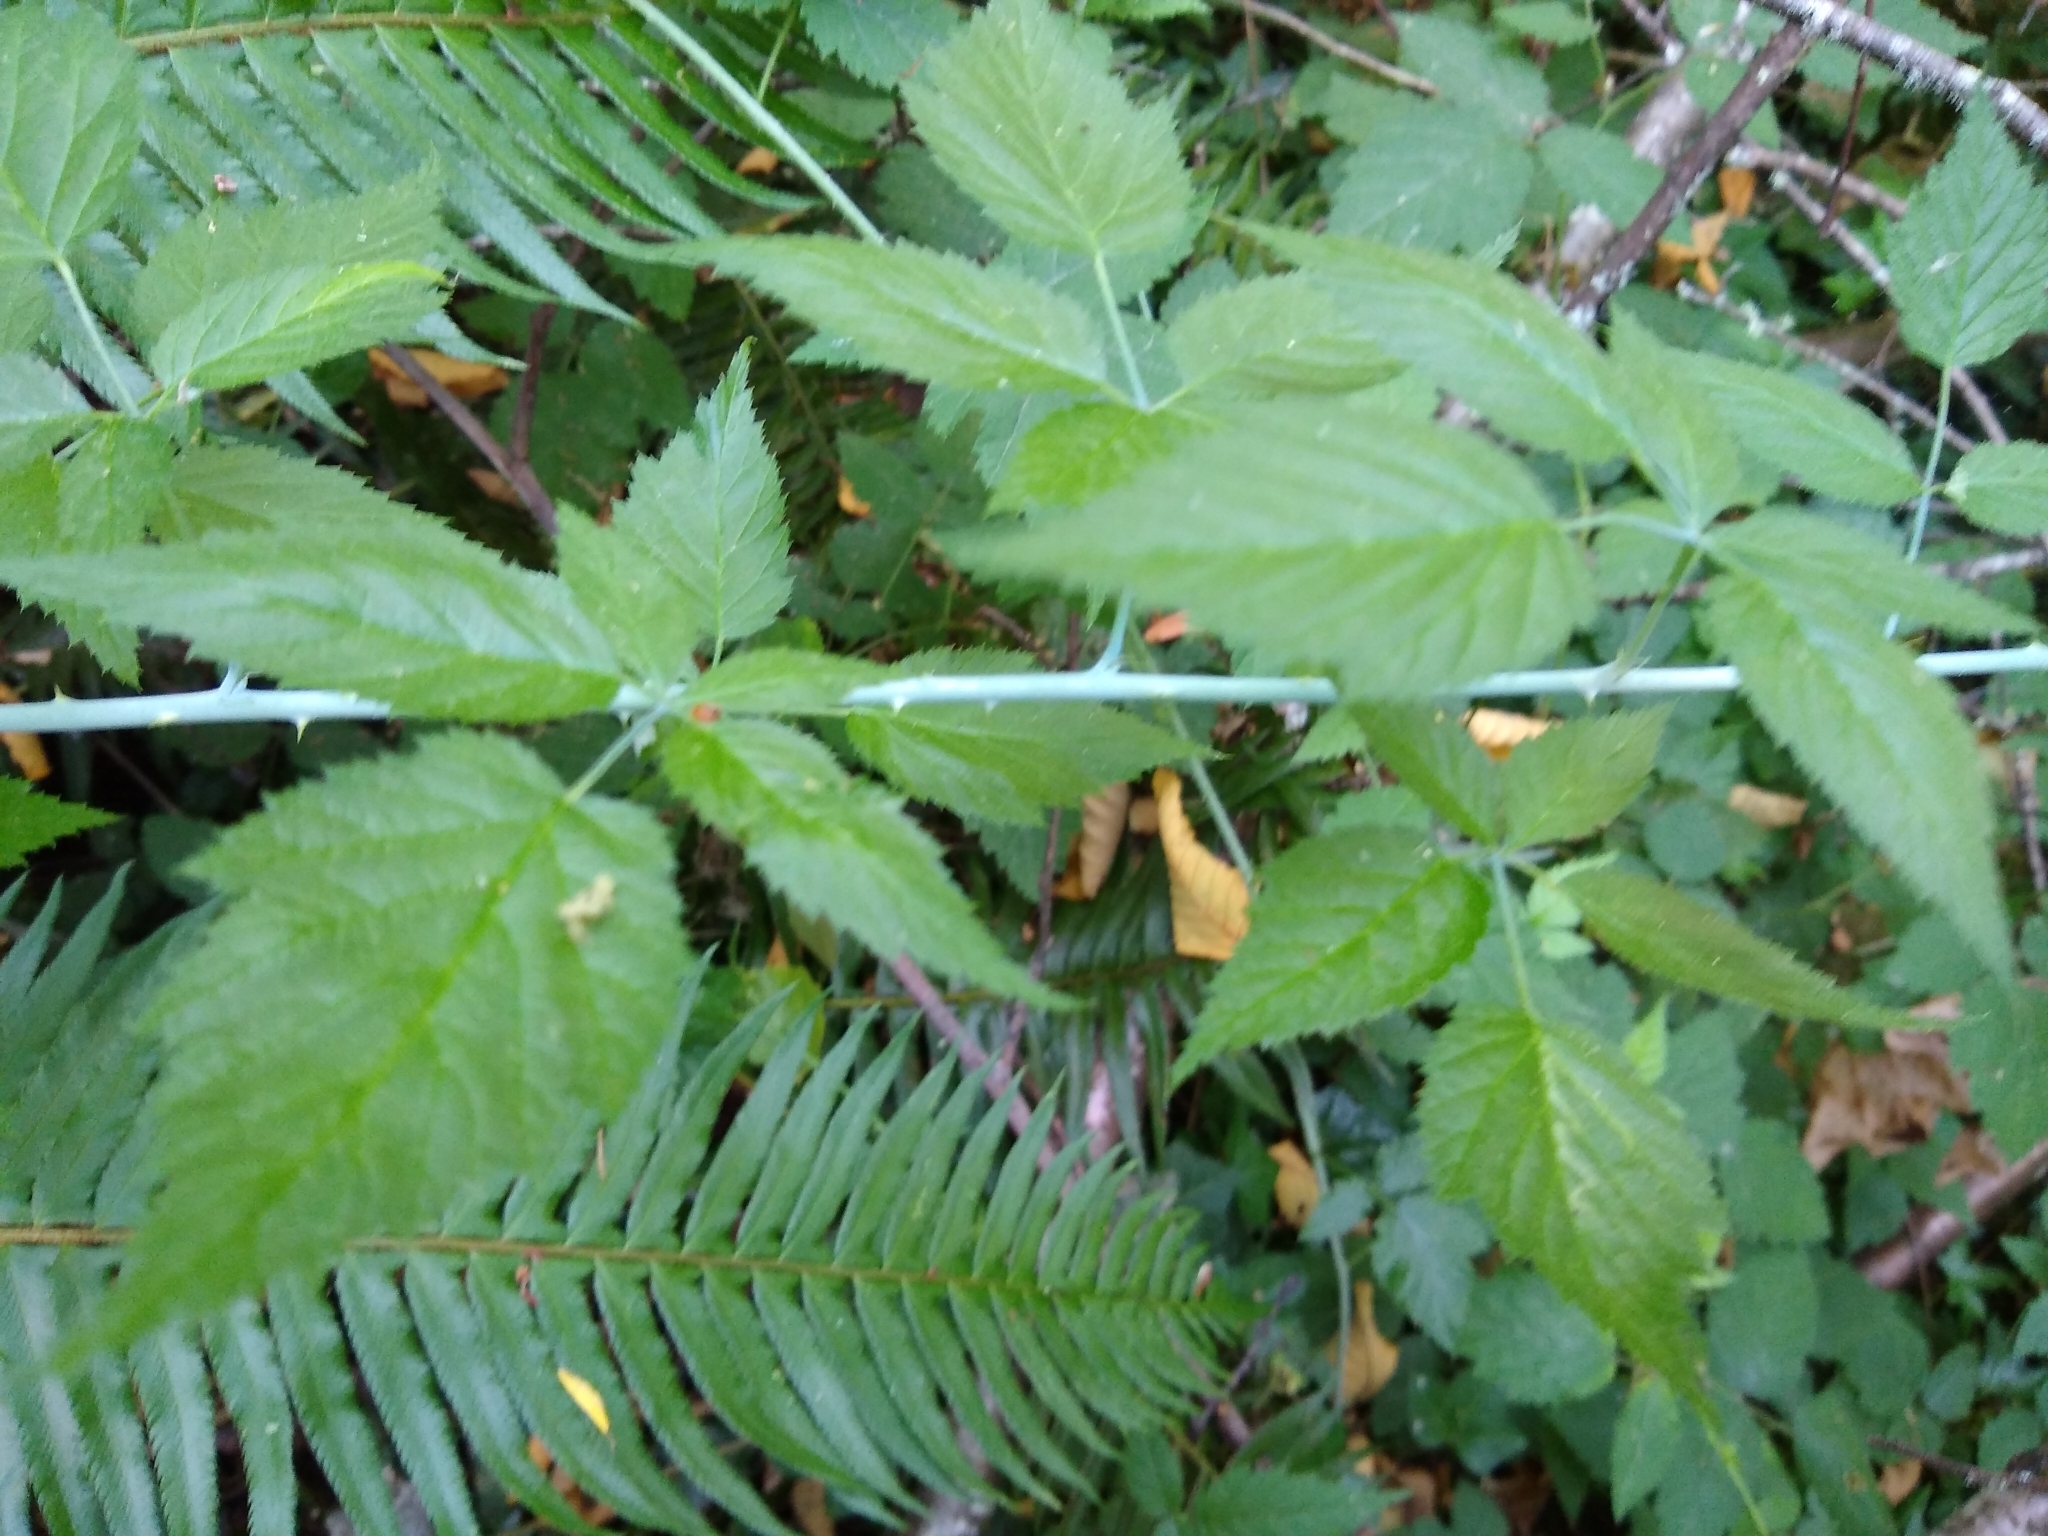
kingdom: Plantae
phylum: Tracheophyta
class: Magnoliopsida
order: Rosales
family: Rosaceae
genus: Rubus
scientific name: Rubus leucodermis
